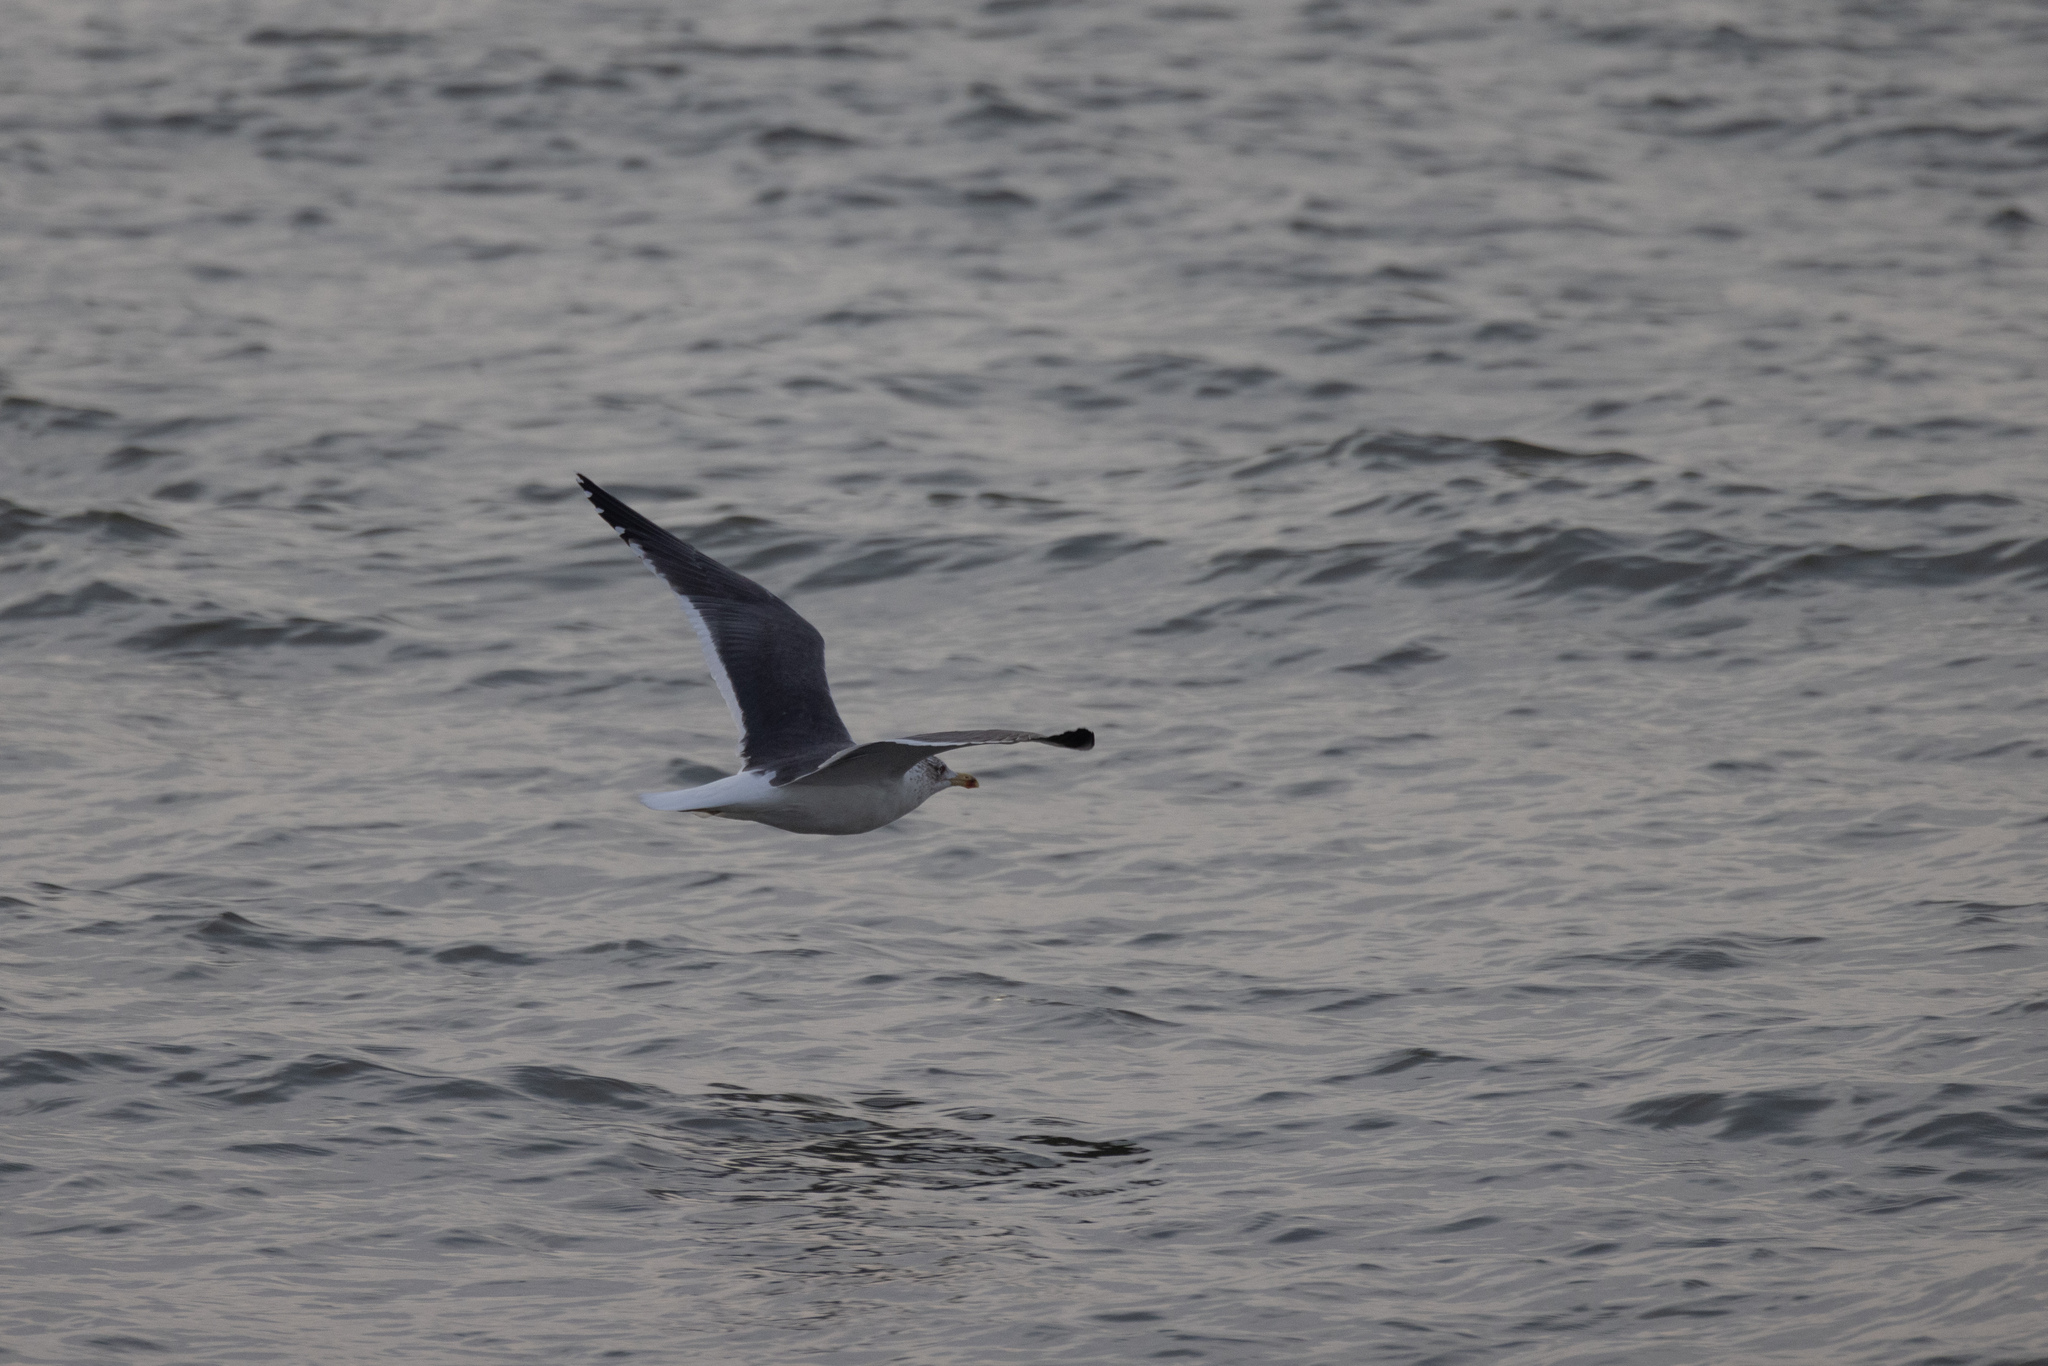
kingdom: Animalia
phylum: Chordata
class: Aves
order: Charadriiformes
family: Laridae
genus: Larus
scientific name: Larus fuscus
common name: Lesser black-backed gull
